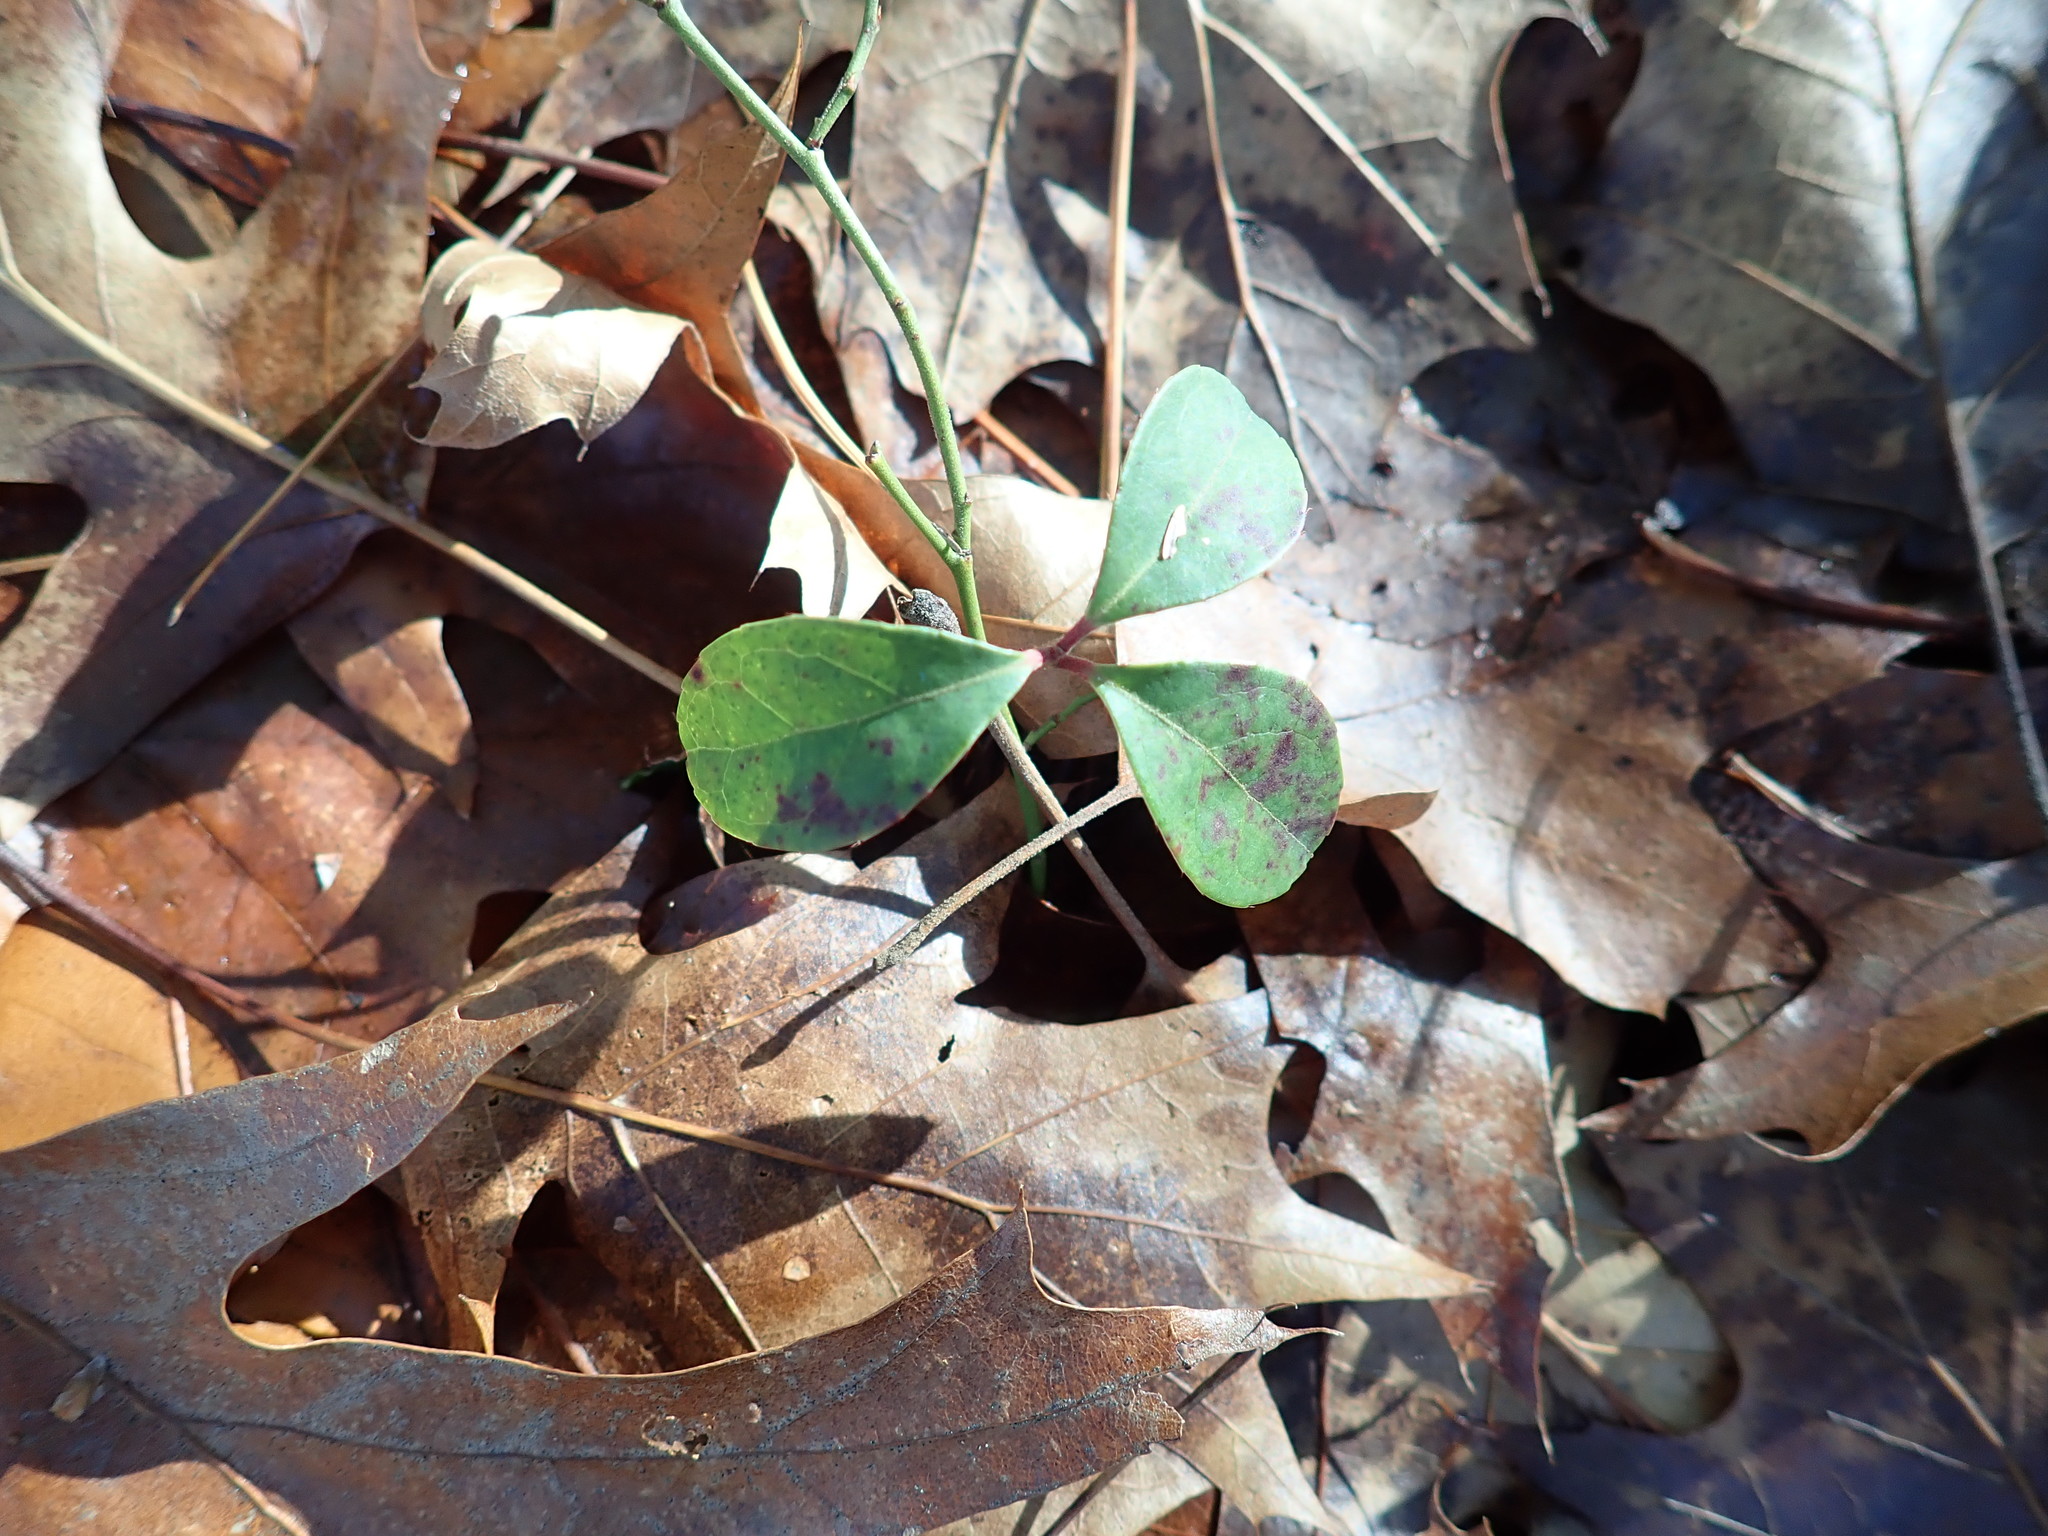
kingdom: Plantae
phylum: Tracheophyta
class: Magnoliopsida
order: Ericales
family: Ericaceae
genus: Gaultheria
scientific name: Gaultheria procumbens
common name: Checkerberry
